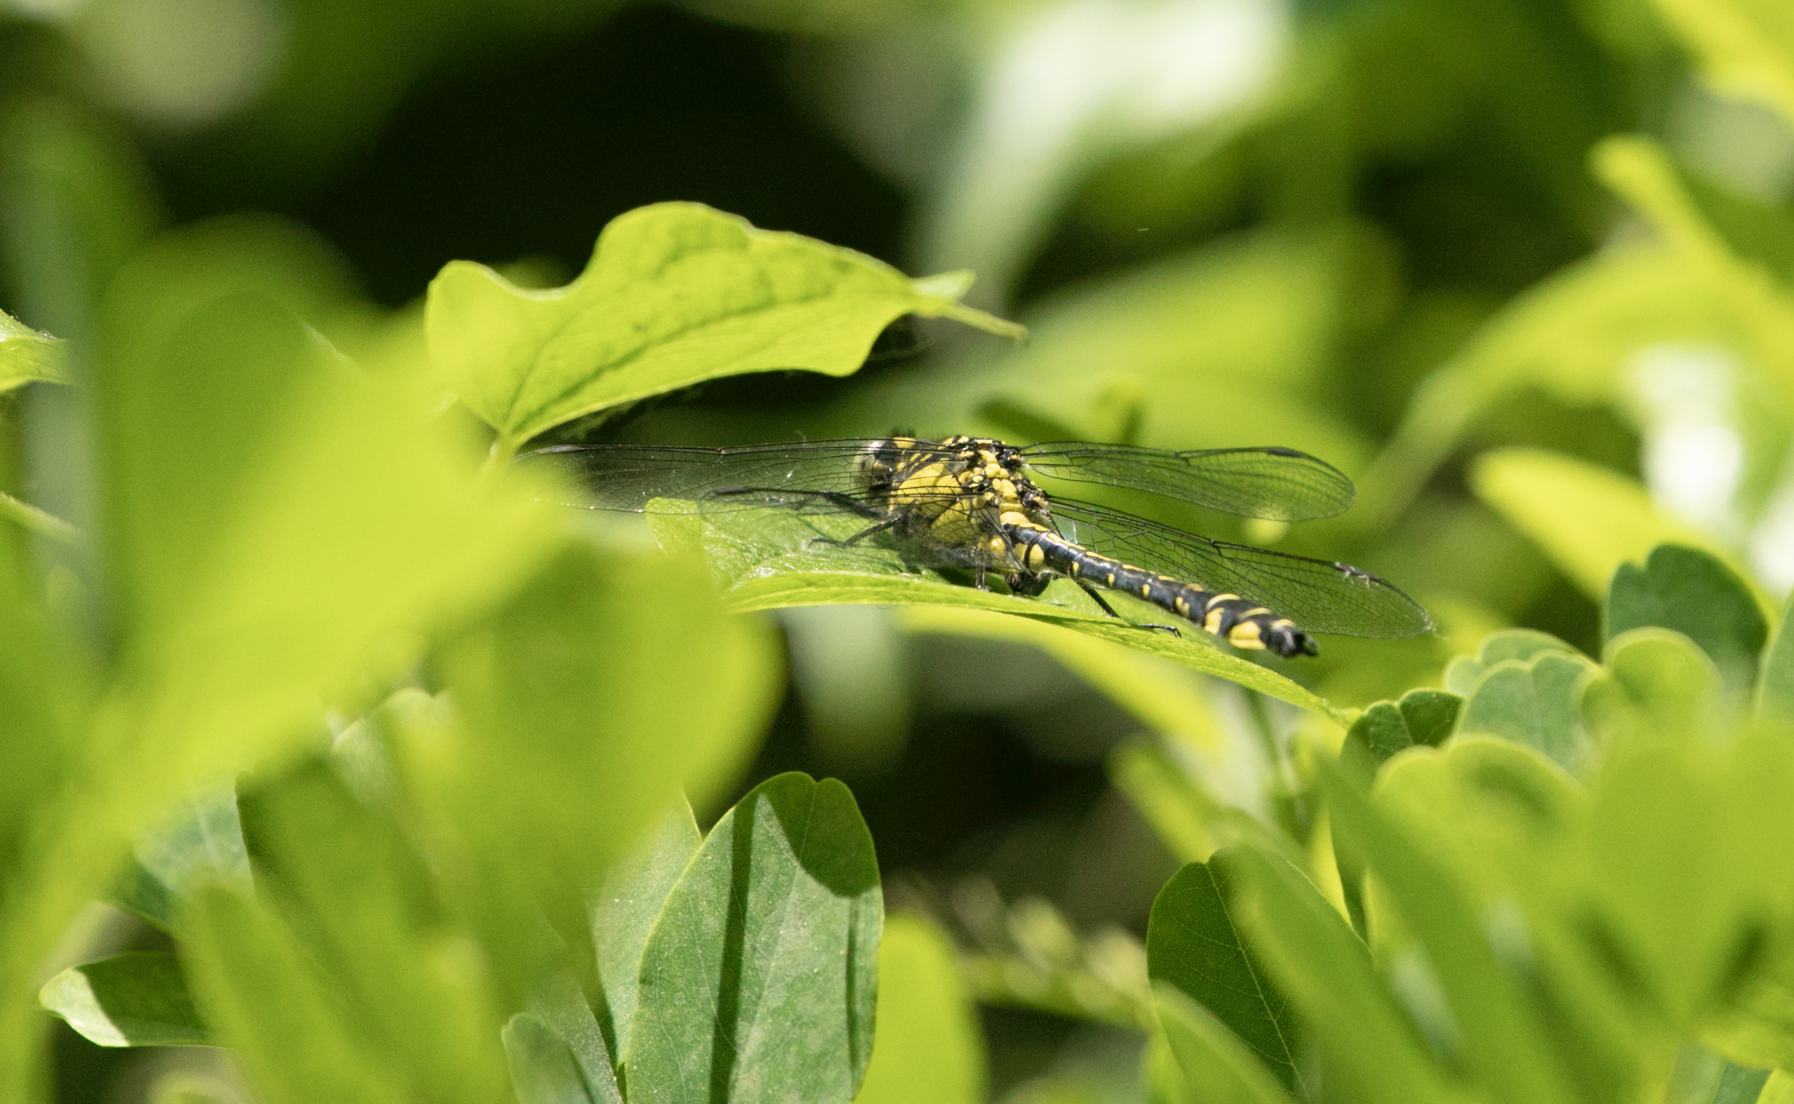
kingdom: Animalia
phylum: Arthropoda
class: Insecta
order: Odonata
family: Gomphidae
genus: Gomphus
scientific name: Gomphus vulgatissimus
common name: Club-tailed dragonfly
